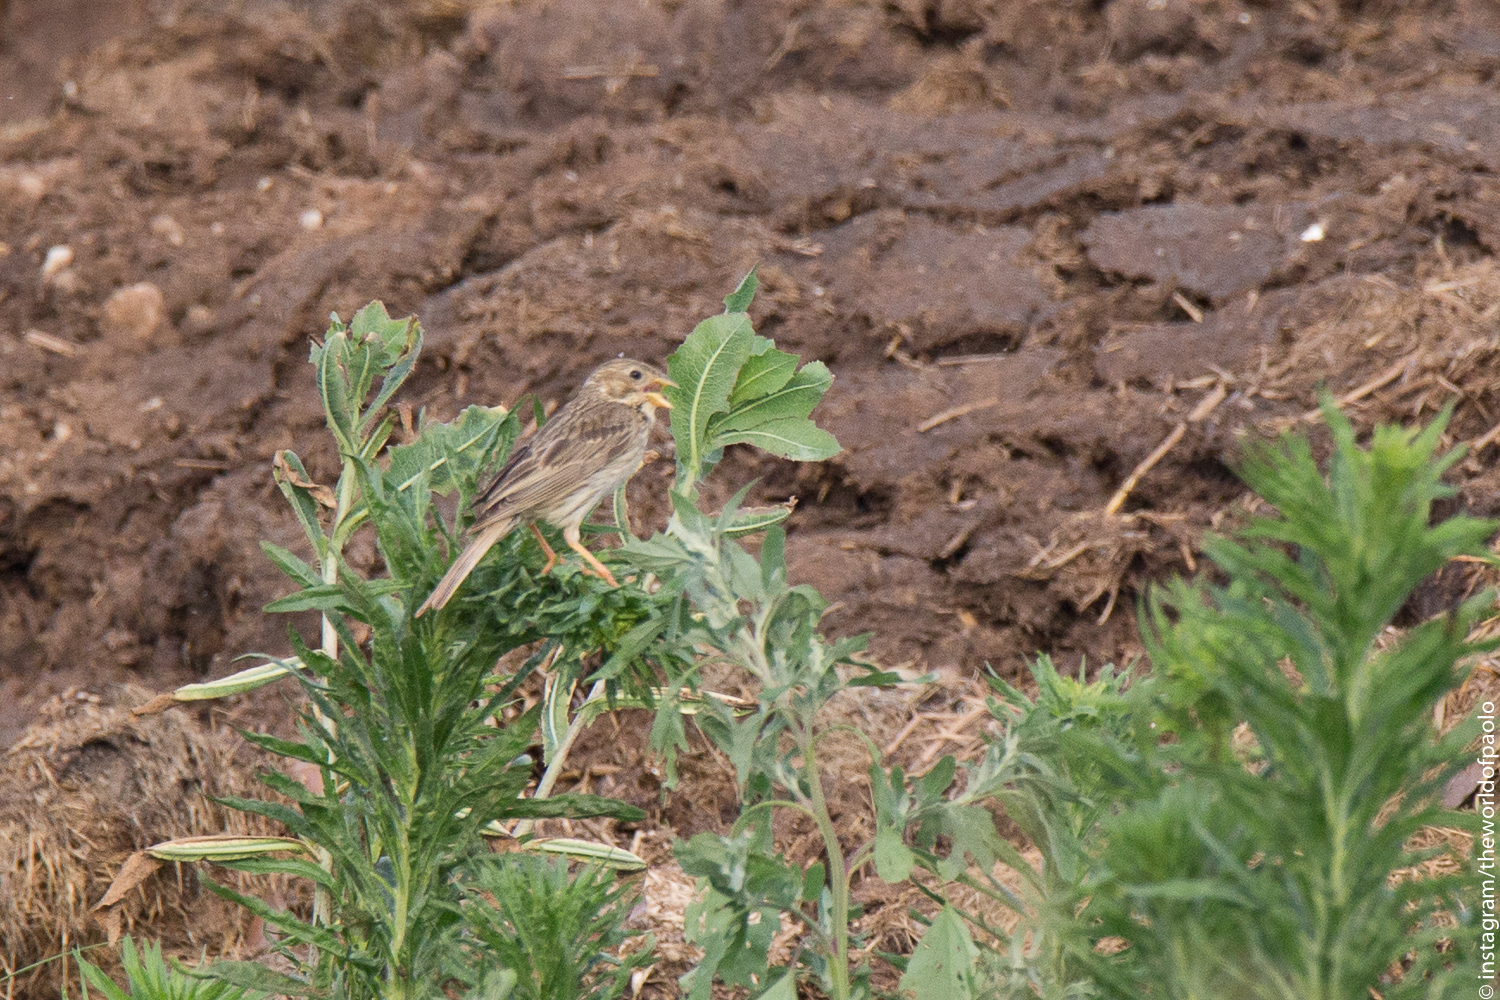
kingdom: Animalia
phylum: Chordata
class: Aves
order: Passeriformes
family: Emberizidae
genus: Emberiza
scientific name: Emberiza calandra
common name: Corn bunting
